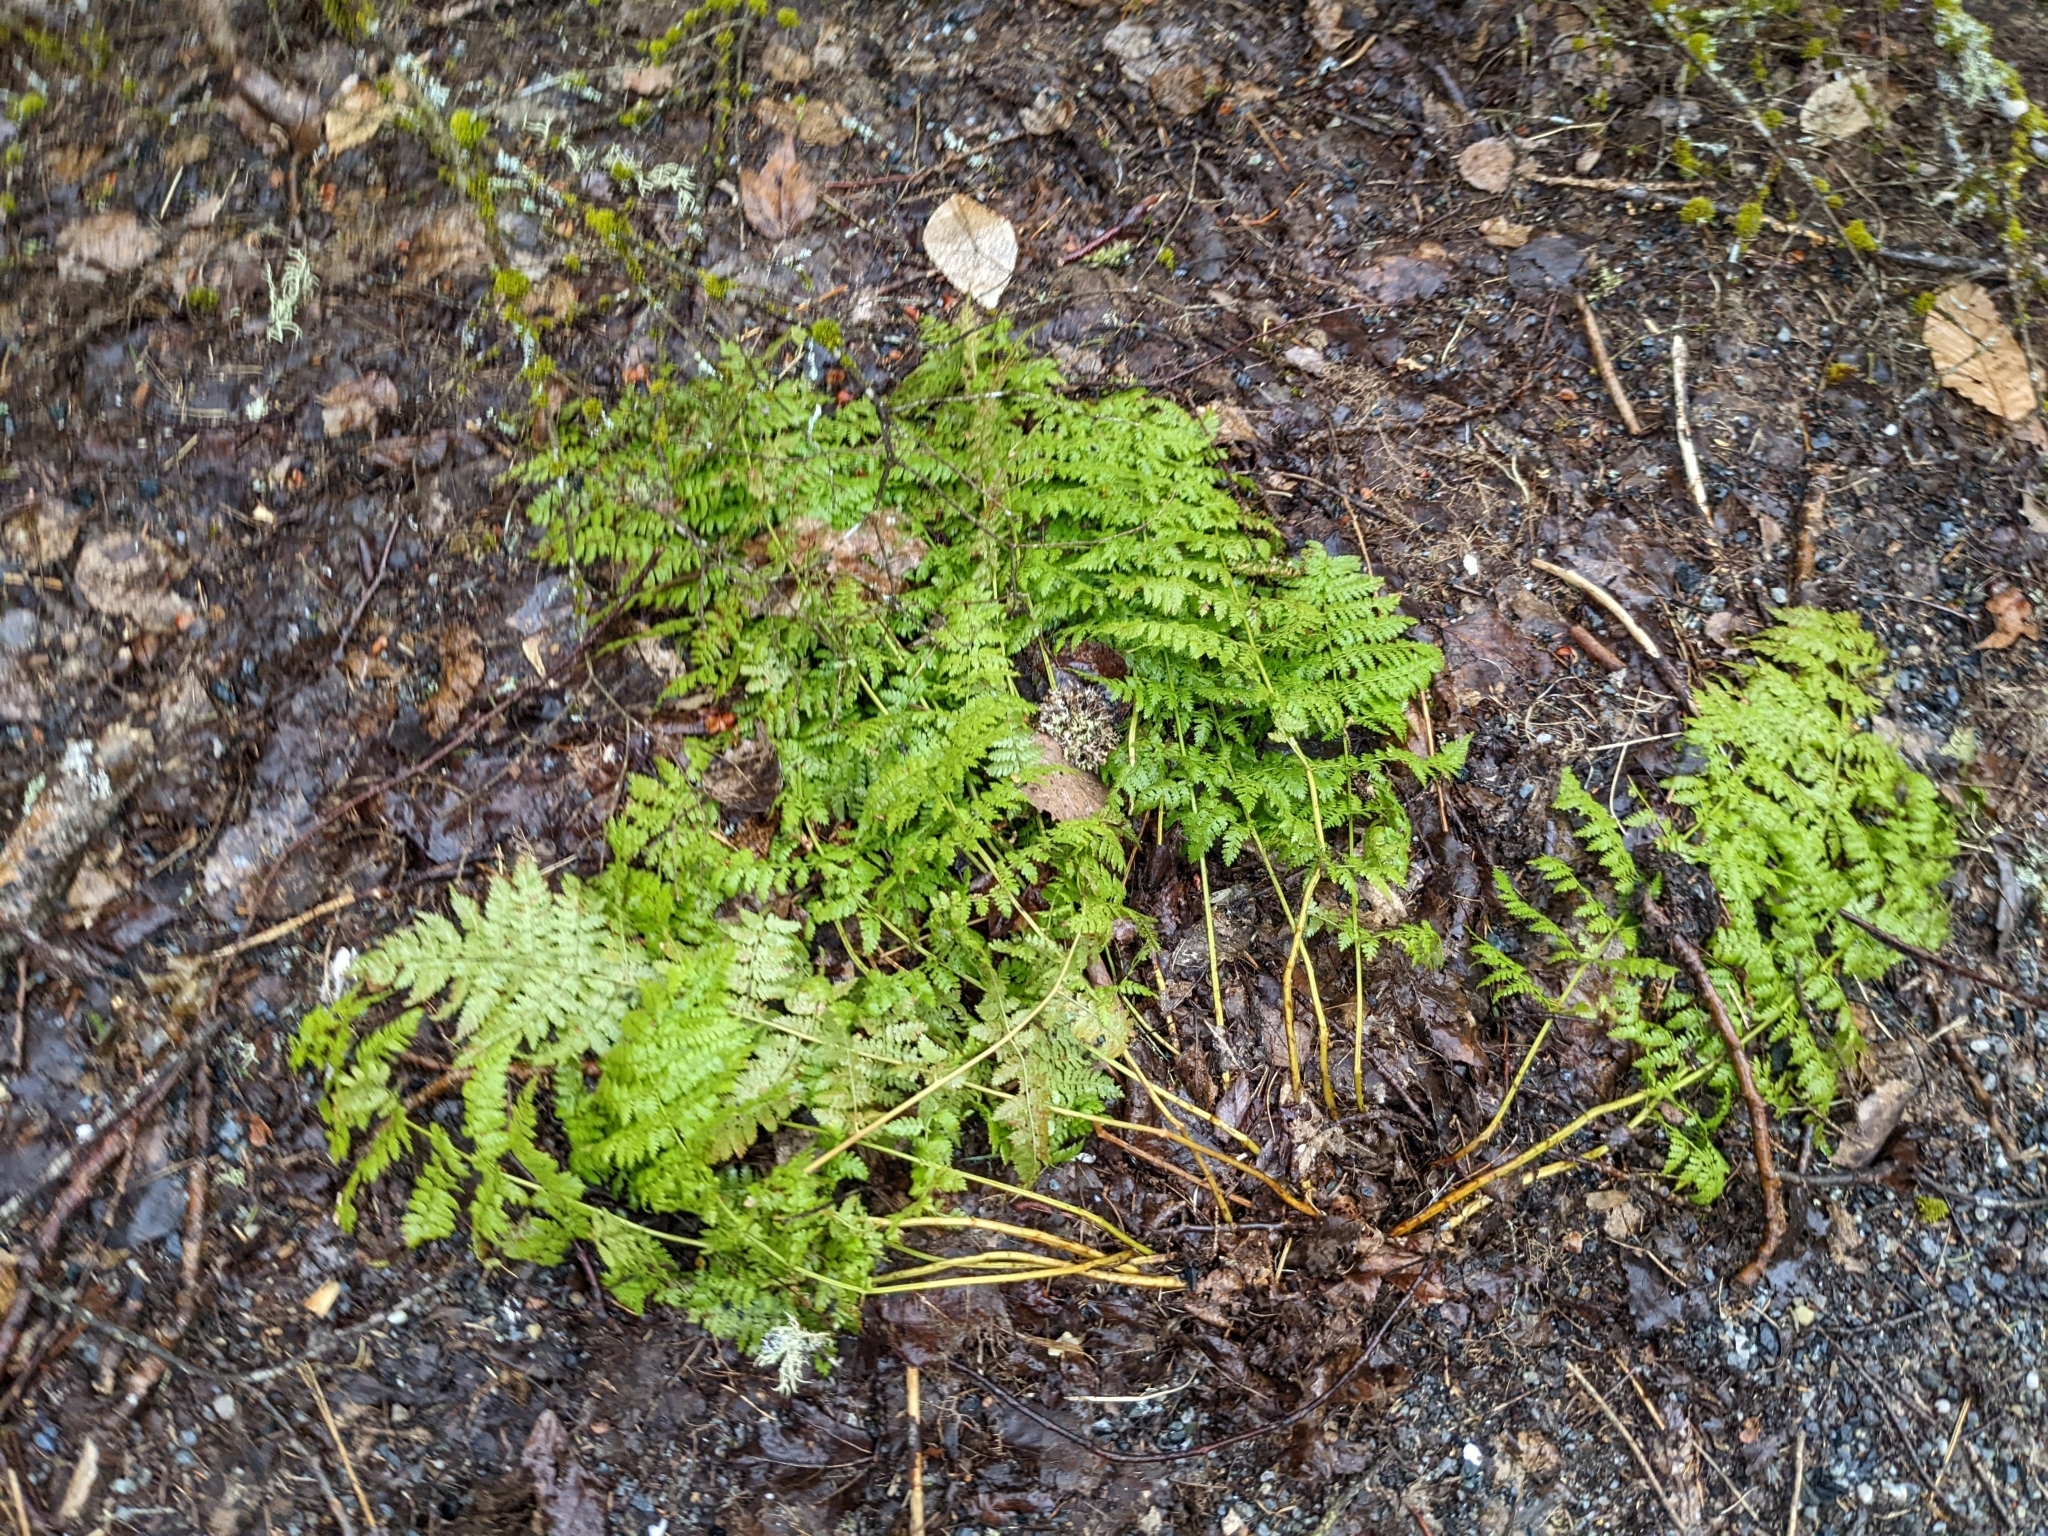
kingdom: Plantae
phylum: Tracheophyta
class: Polypodiopsida
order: Polypodiales
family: Dryopteridaceae
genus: Dryopteris
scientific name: Dryopteris intermedia
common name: Evergreen wood fern
